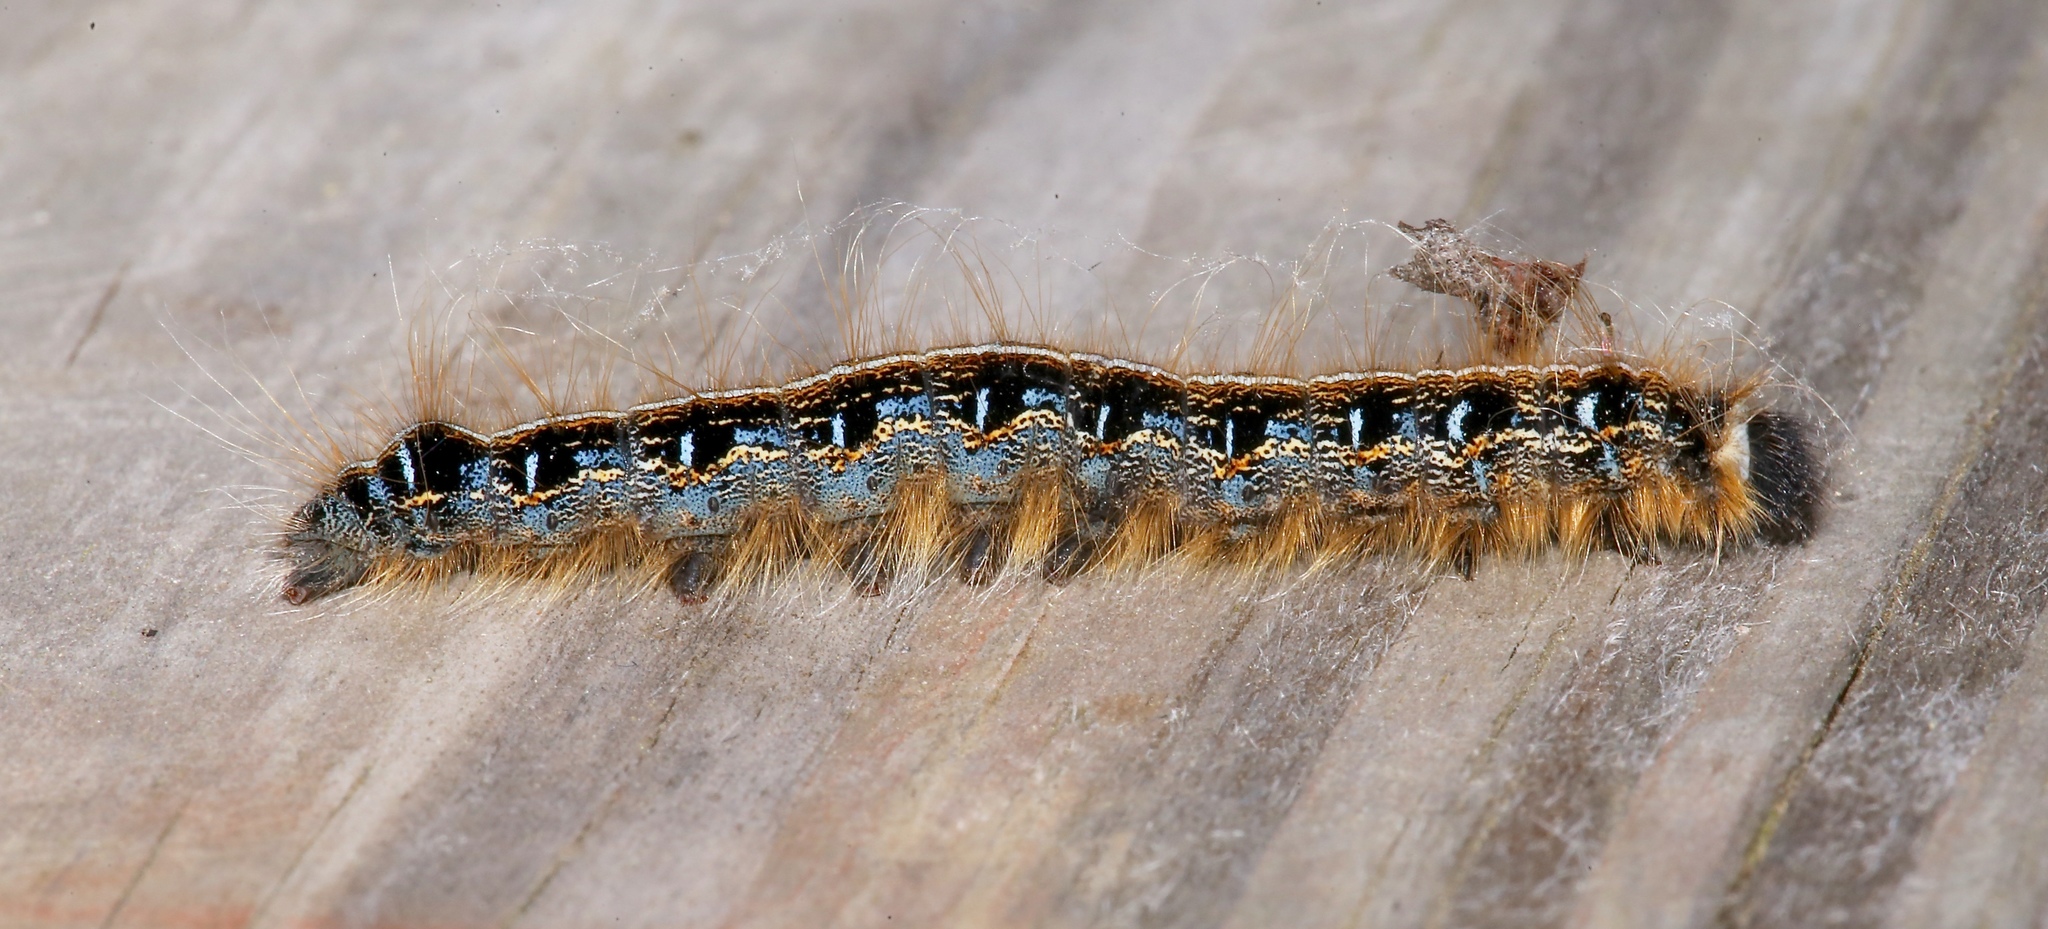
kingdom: Animalia
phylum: Arthropoda
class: Insecta
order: Lepidoptera
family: Lasiocampidae
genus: Malacosoma
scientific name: Malacosoma americana
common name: Eastern tent caterpillar moth
